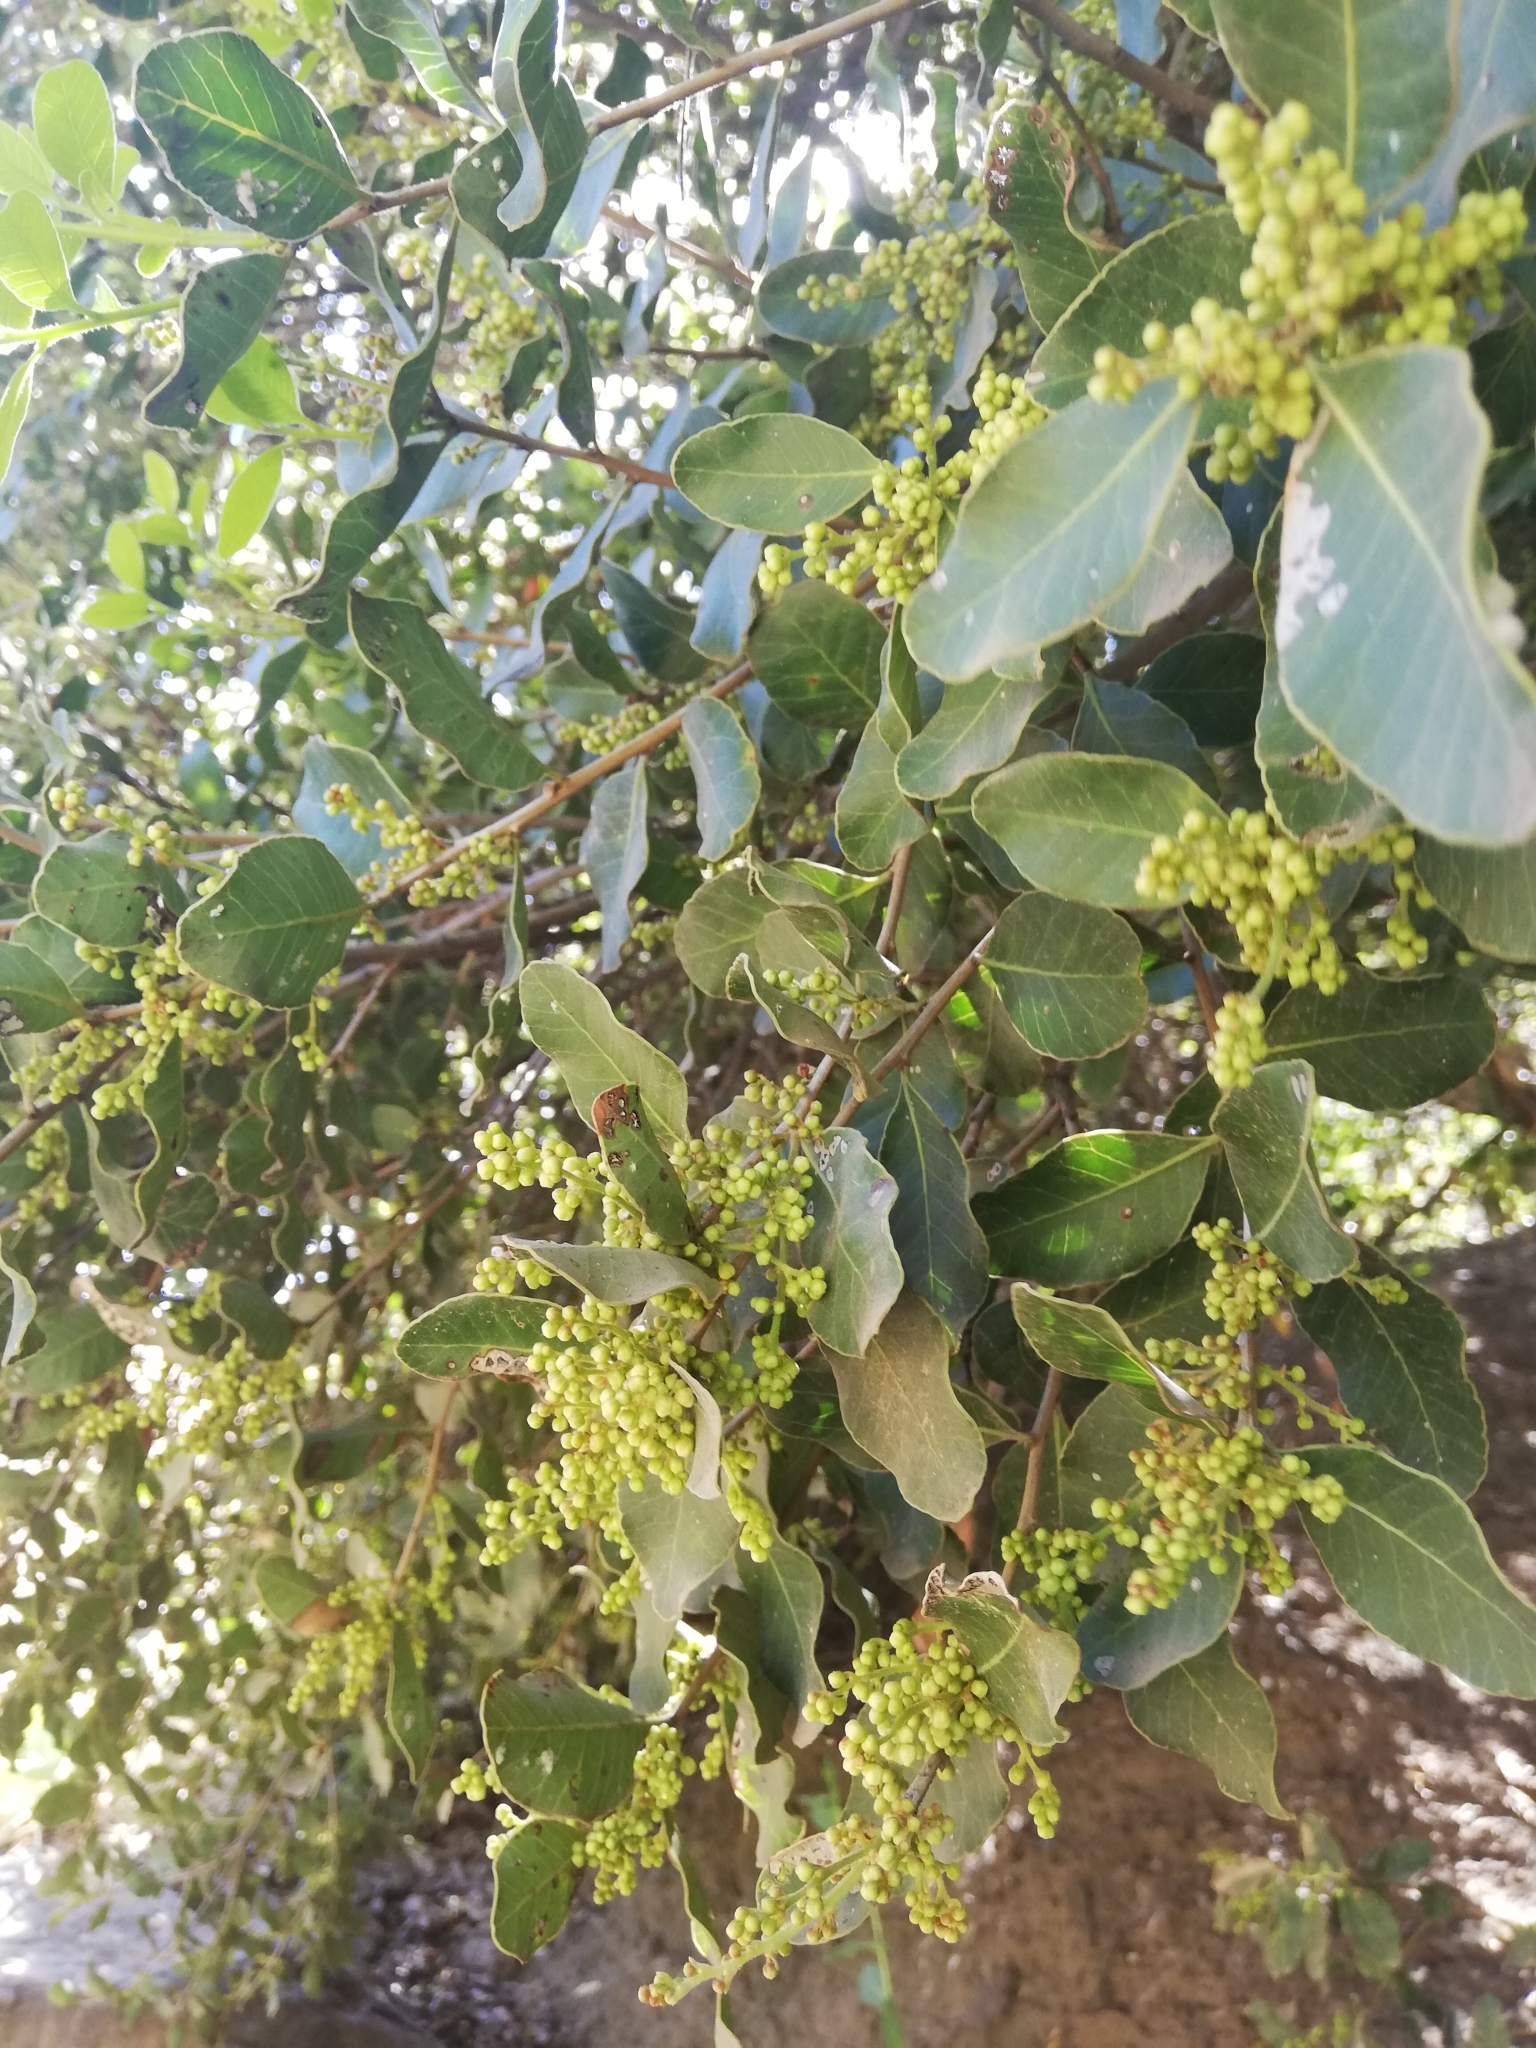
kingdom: Plantae
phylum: Tracheophyta
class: Magnoliopsida
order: Sapindales
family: Anacardiaceae
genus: Lithraea
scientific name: Lithraea caustica
